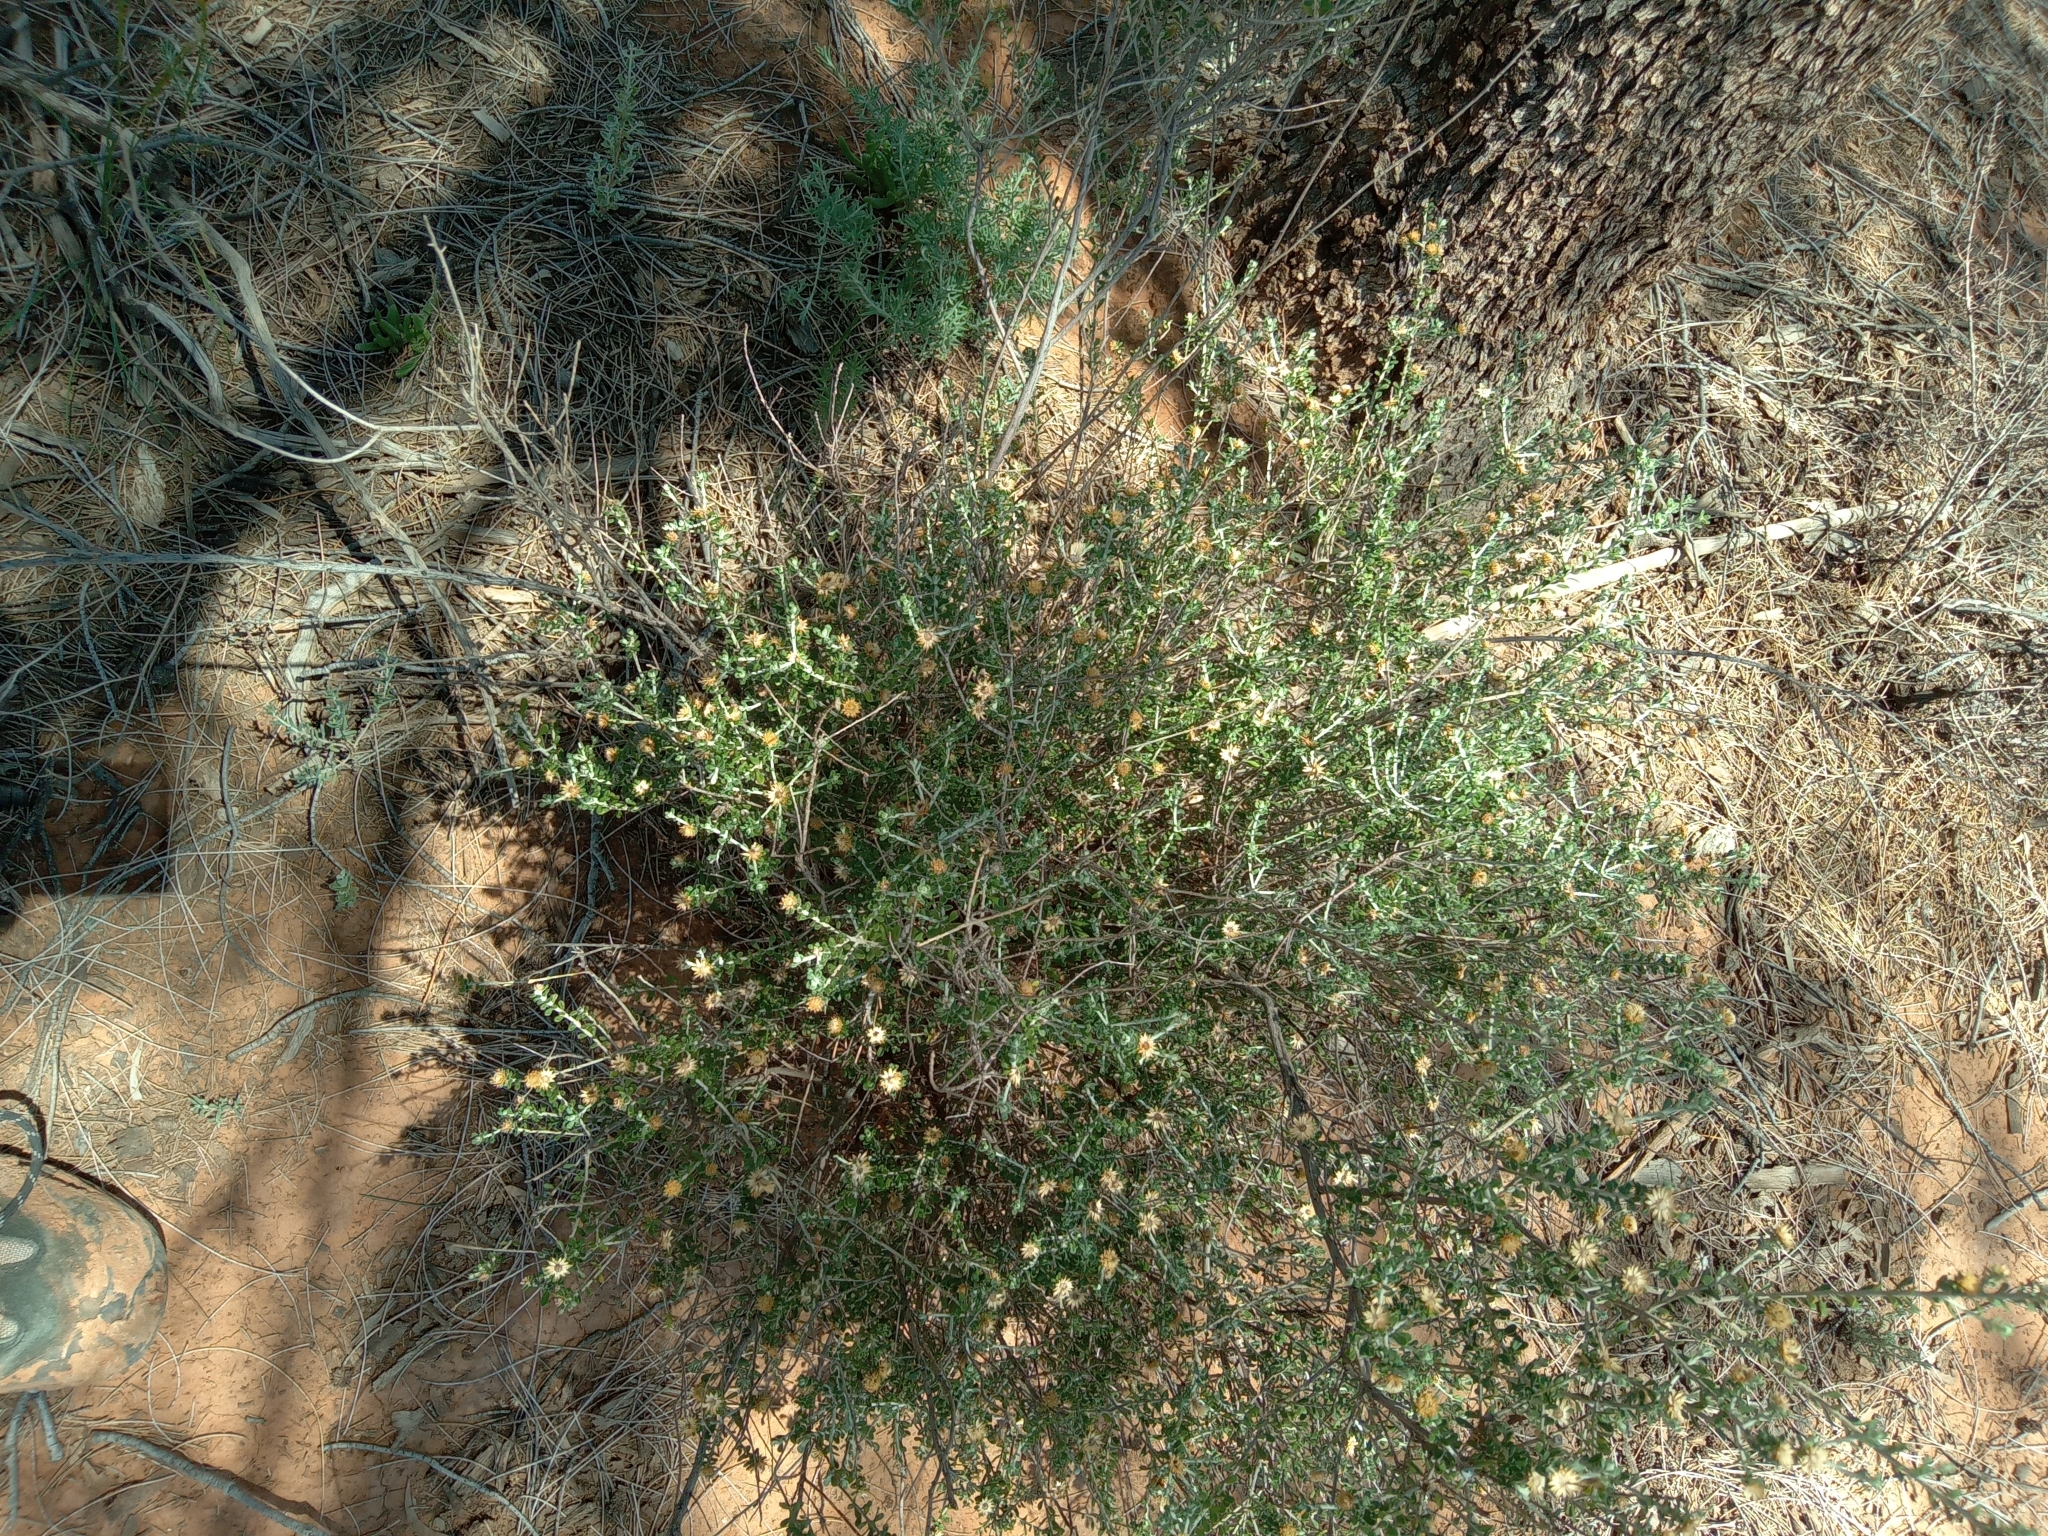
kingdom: Plantae
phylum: Tracheophyta
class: Magnoliopsida
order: Asterales
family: Asteraceae
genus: Olearia
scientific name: Olearia pimeleoides
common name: Showy daisybush
